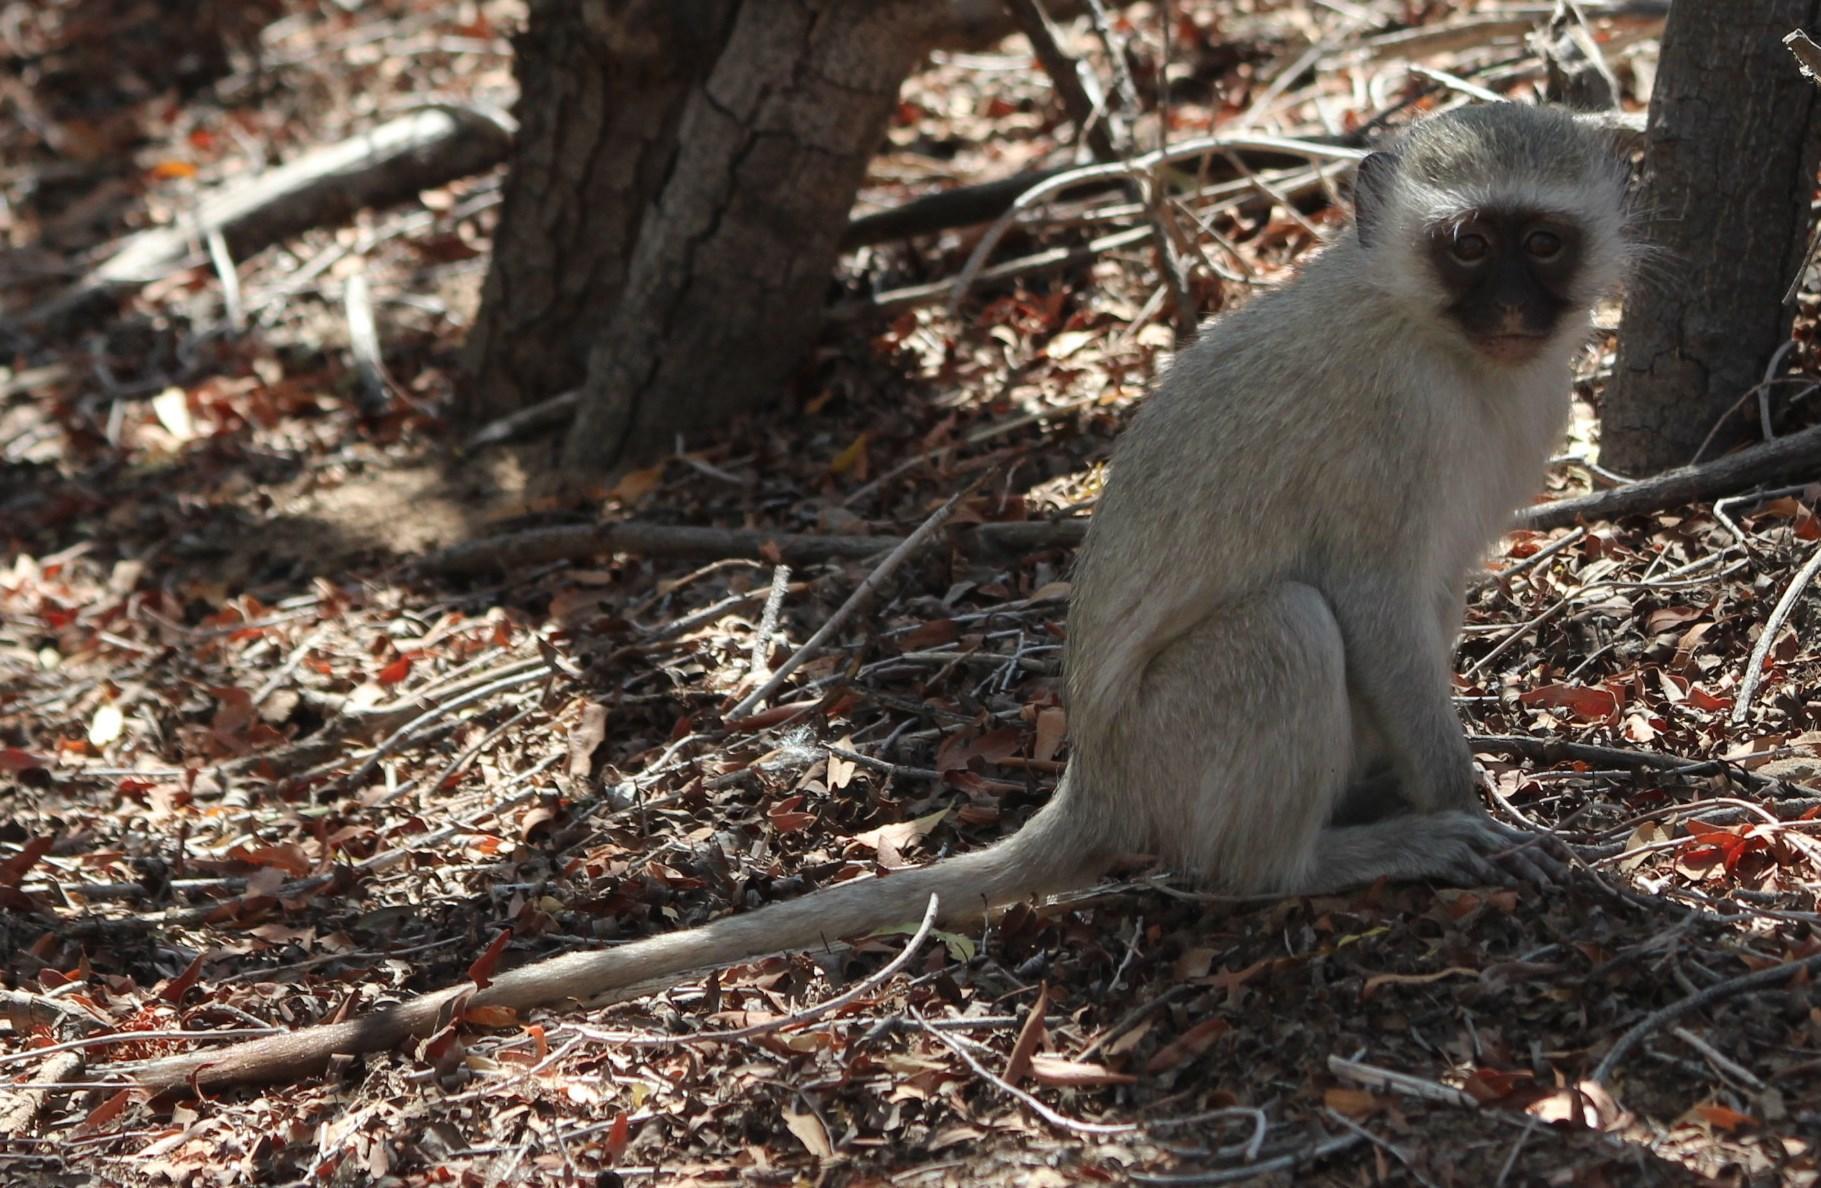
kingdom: Animalia
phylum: Chordata
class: Mammalia
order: Primates
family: Cercopithecidae
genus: Chlorocebus
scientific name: Chlorocebus pygerythrus
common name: Vervet monkey
